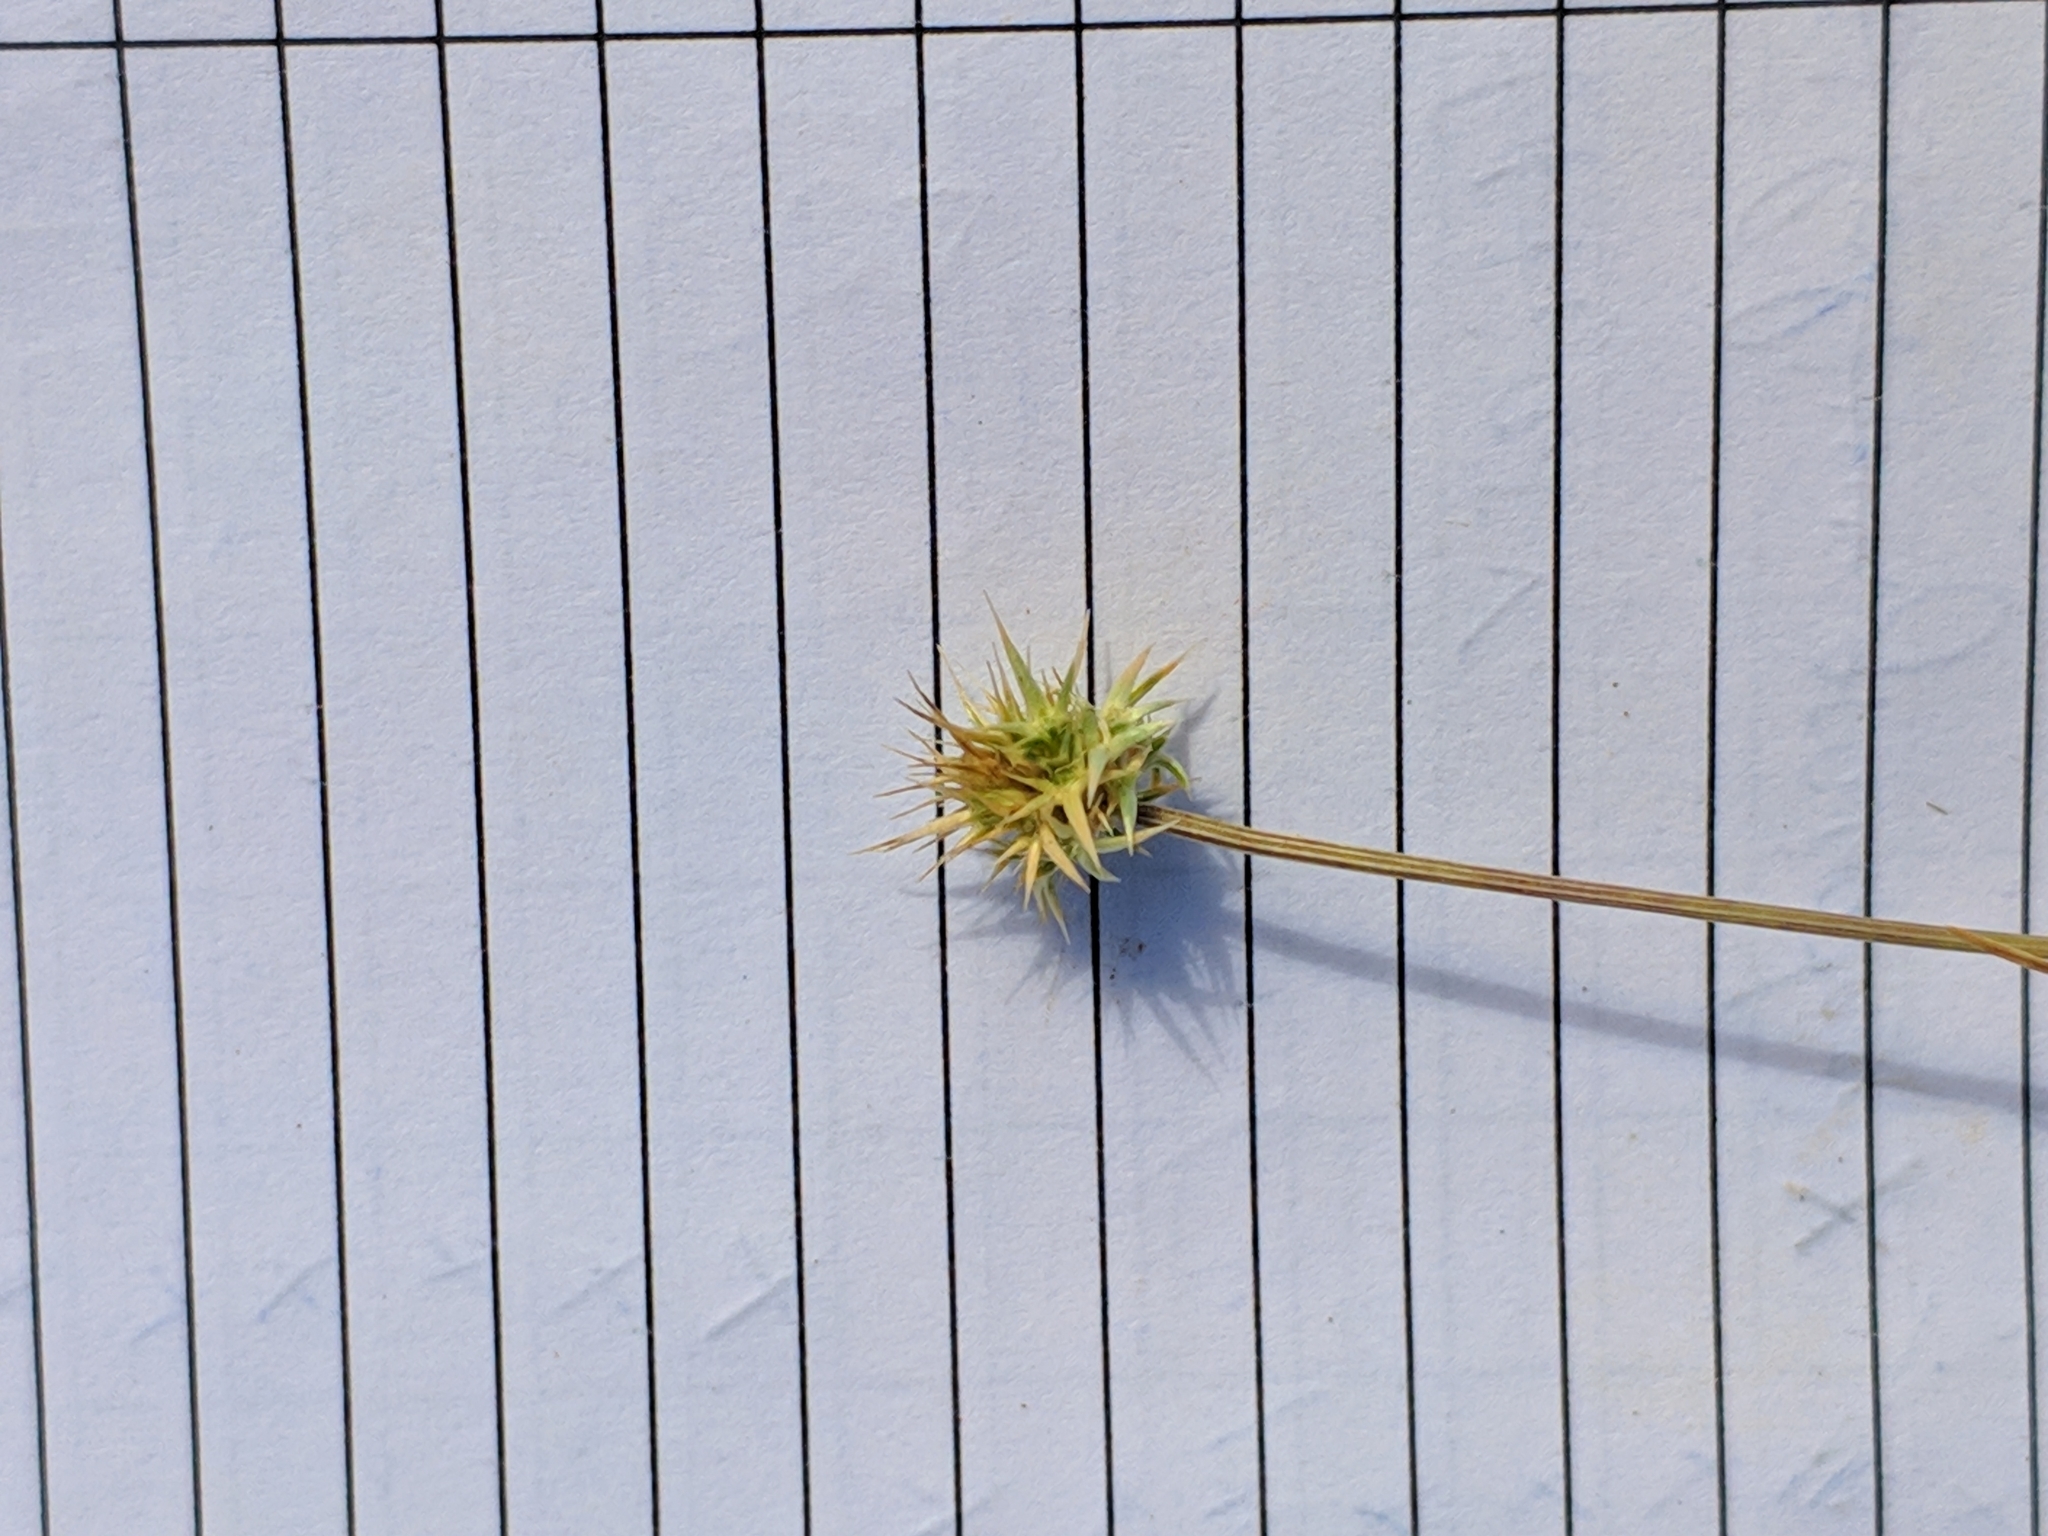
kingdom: Plantae
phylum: Tracheophyta
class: Liliopsida
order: Poales
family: Poaceae
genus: Echinaria
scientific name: Echinaria capitata
